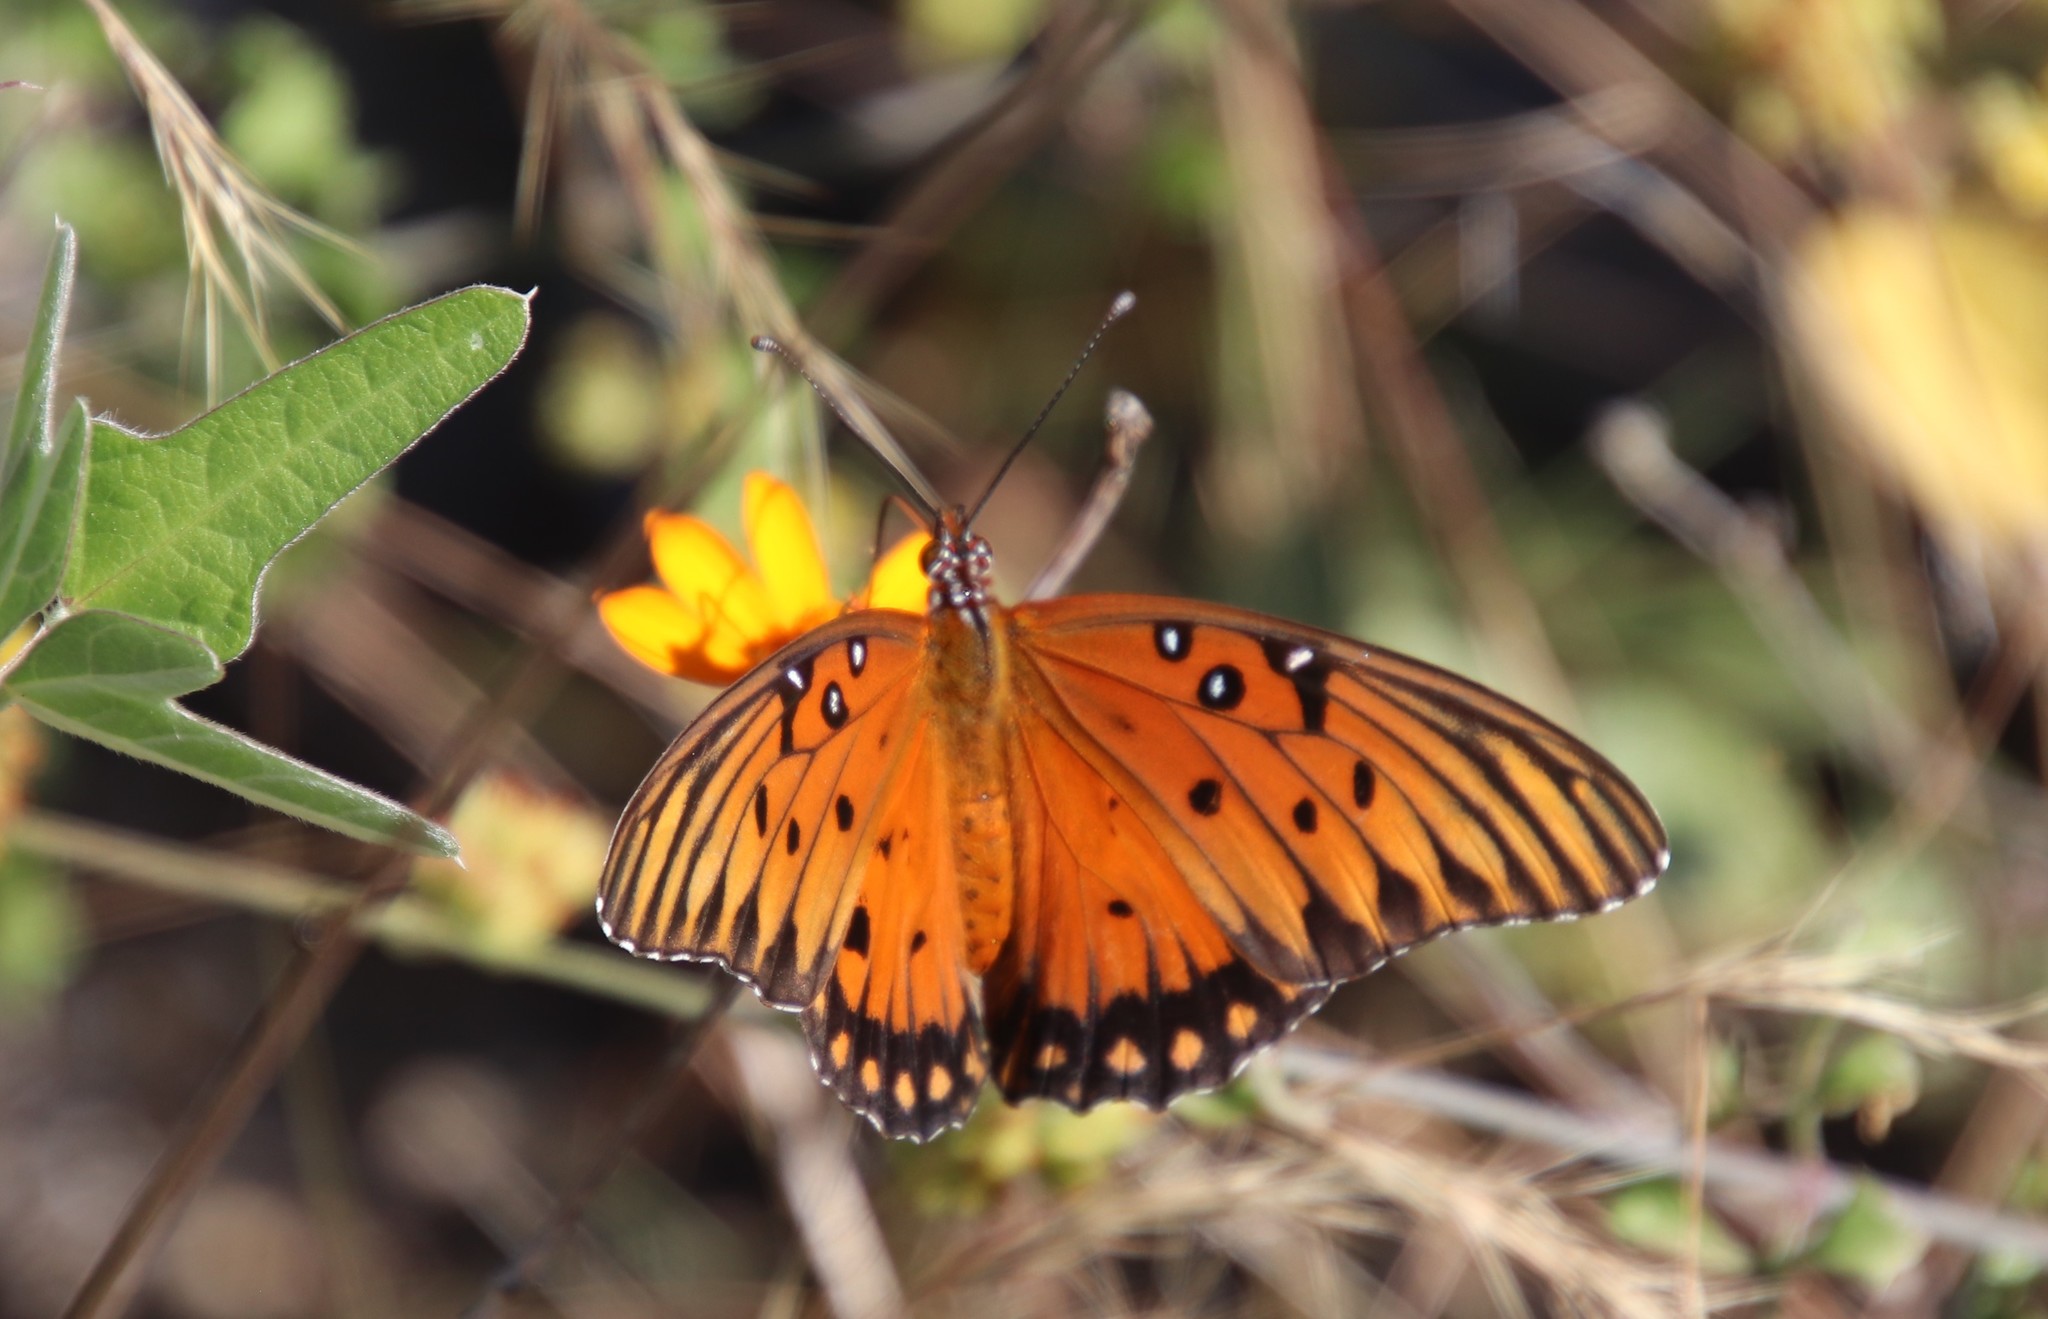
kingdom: Animalia
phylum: Arthropoda
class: Insecta
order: Lepidoptera
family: Nymphalidae
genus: Dione
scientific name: Dione vanillae
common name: Gulf fritillary
